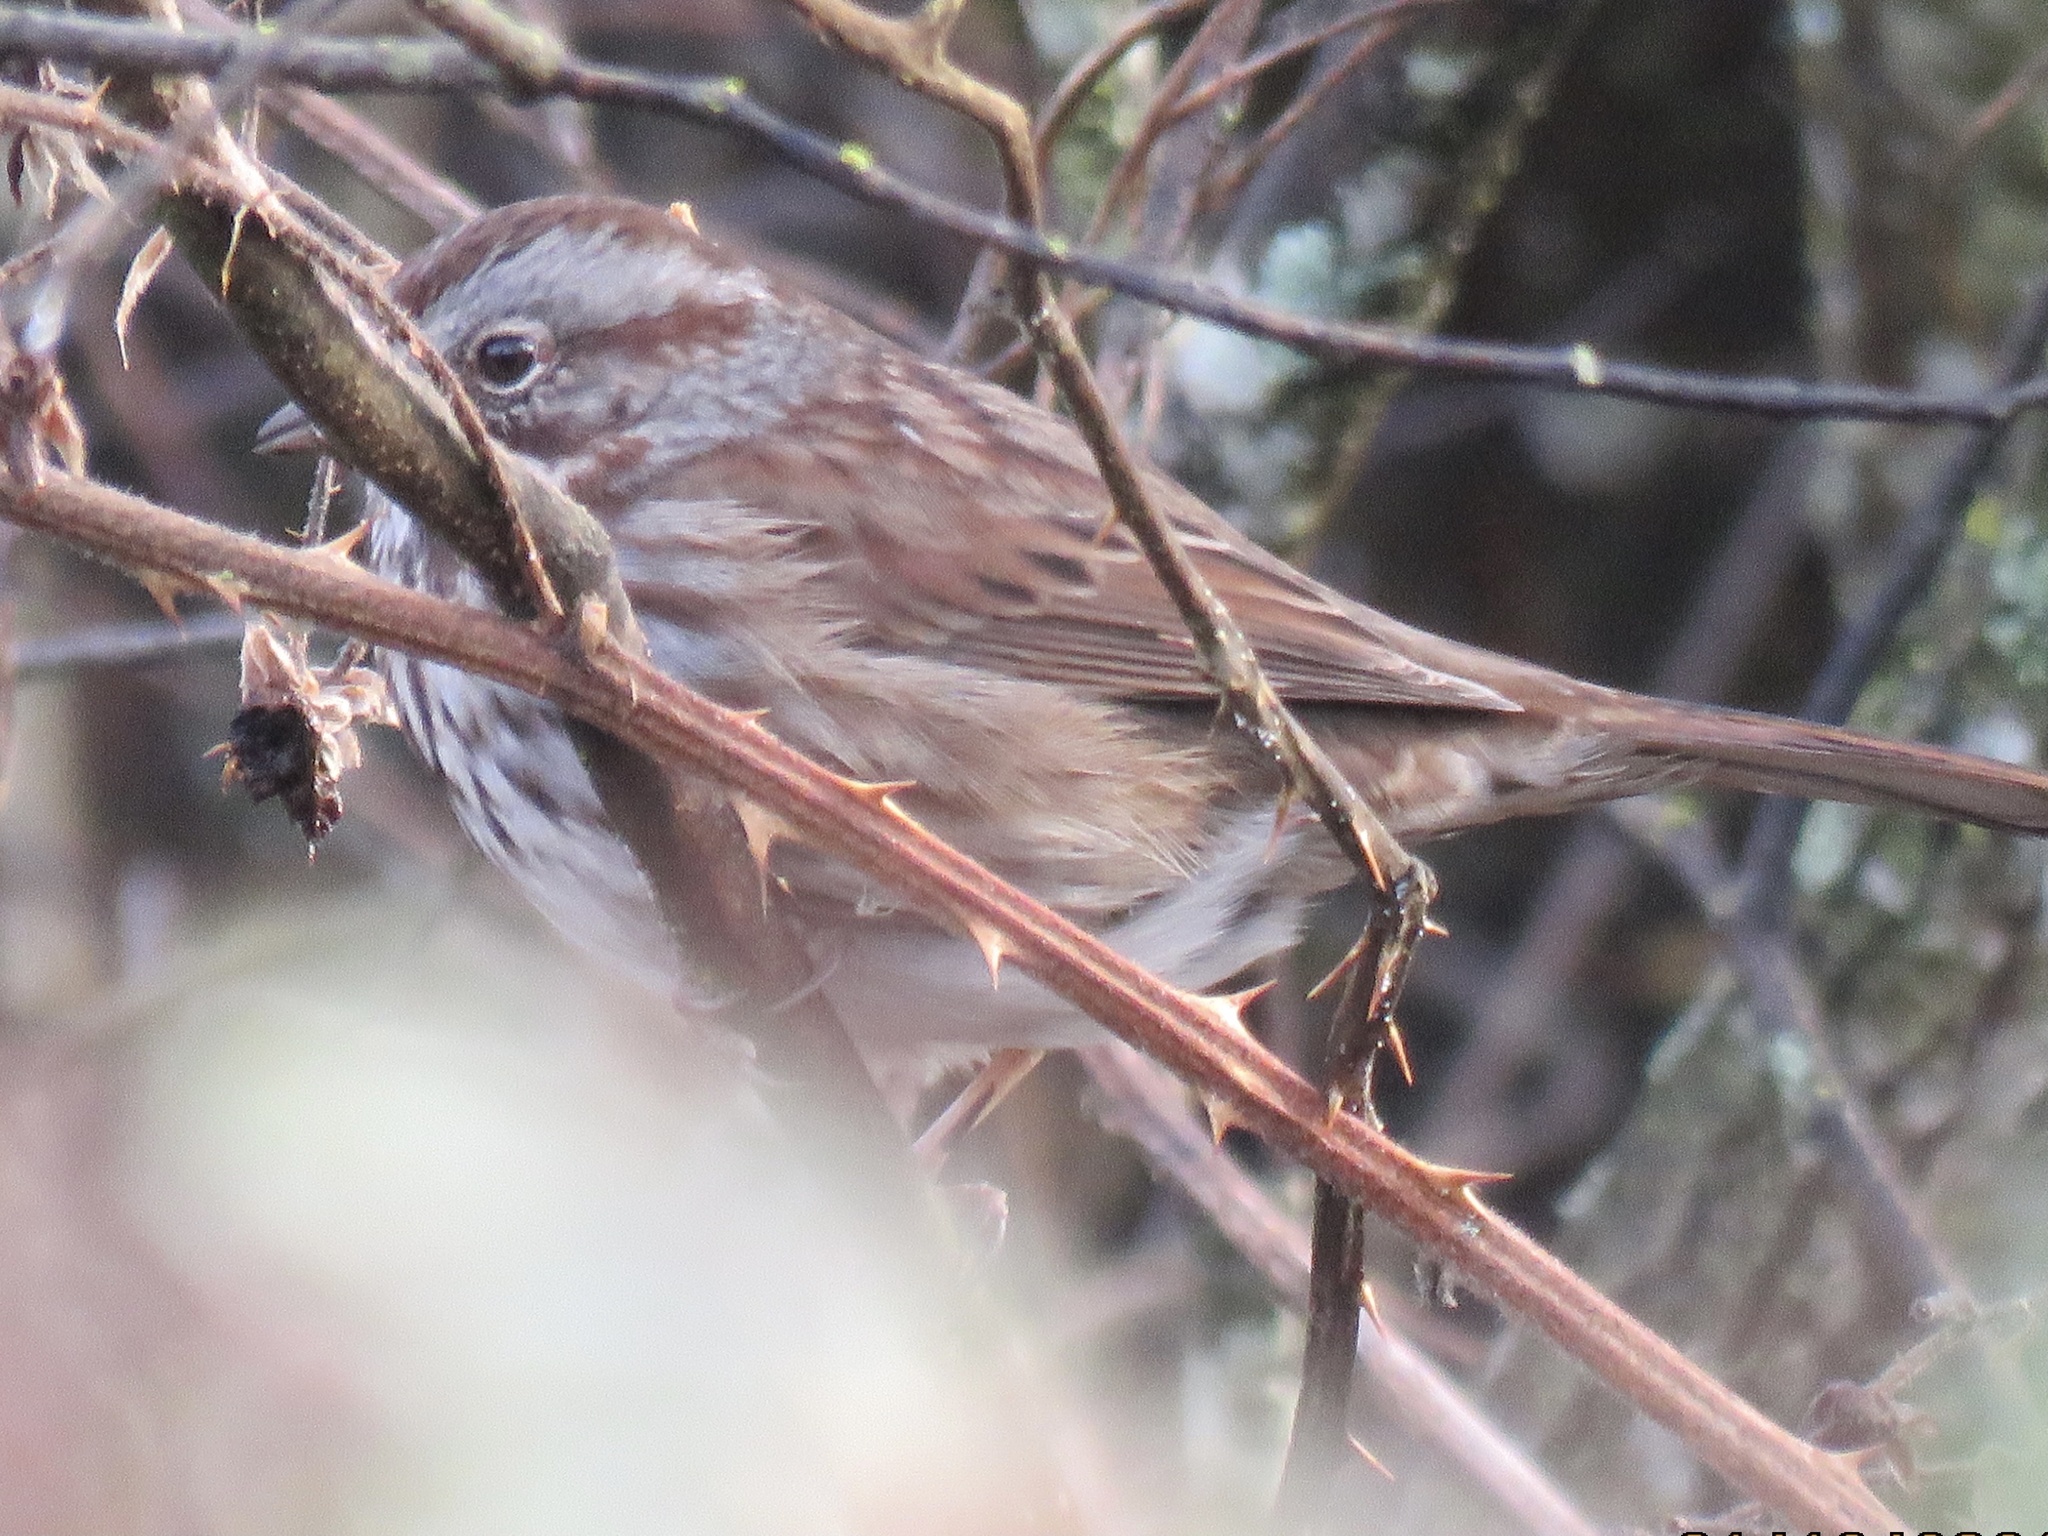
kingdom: Animalia
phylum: Chordata
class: Aves
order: Passeriformes
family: Passerellidae
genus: Melospiza
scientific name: Melospiza melodia
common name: Song sparrow
